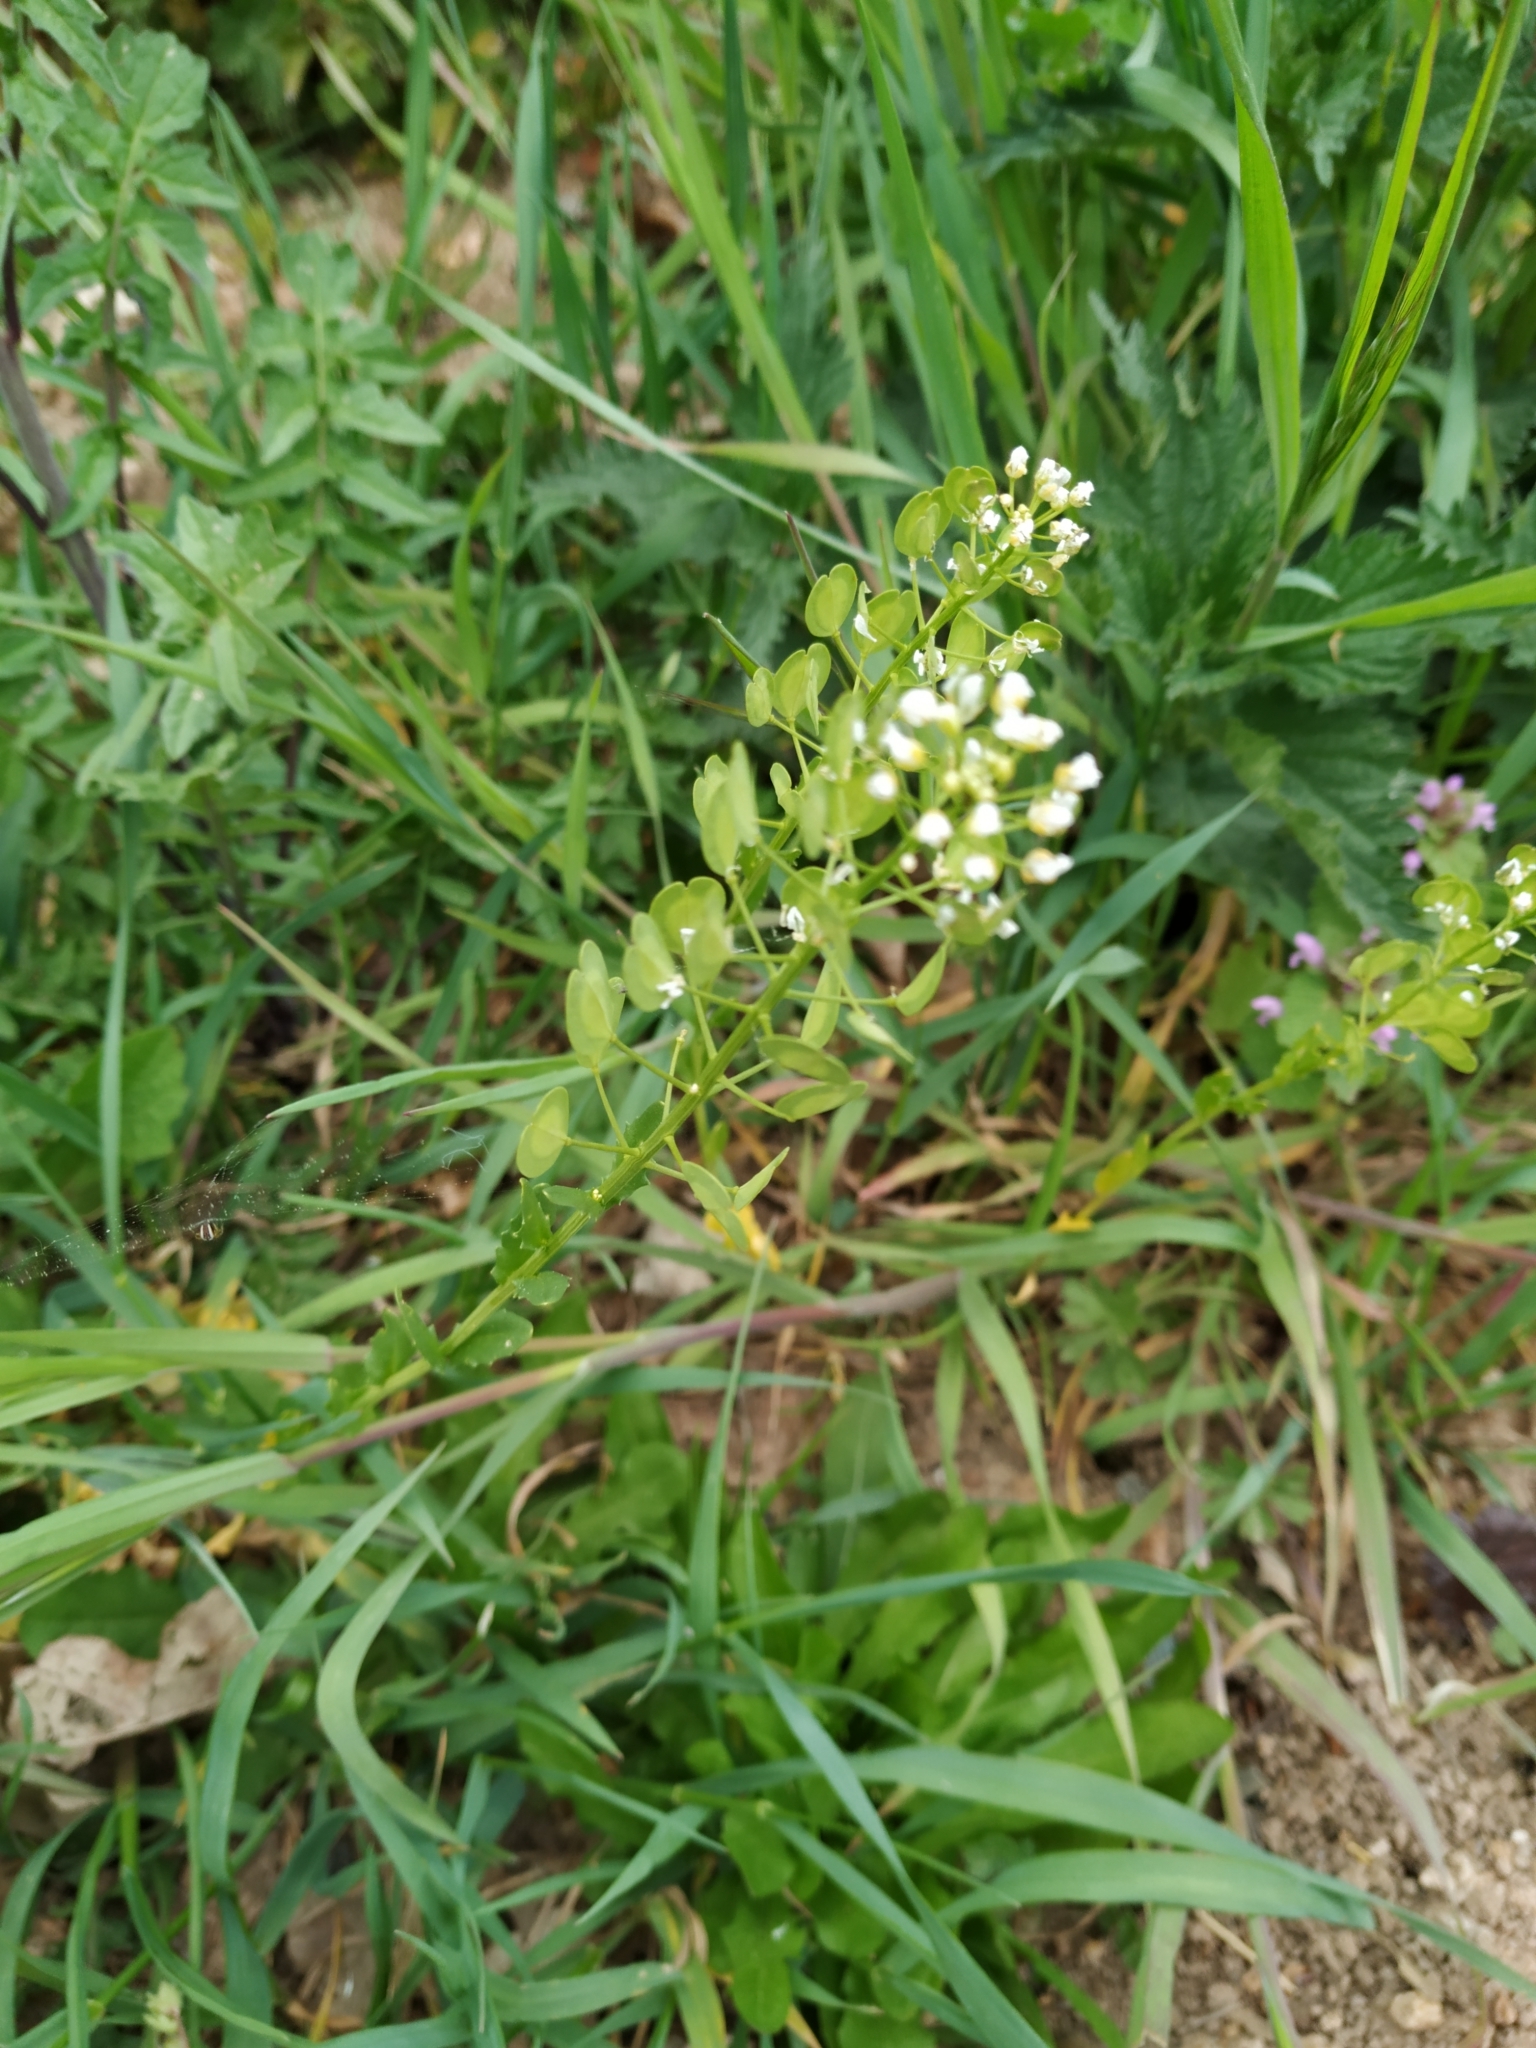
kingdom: Plantae
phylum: Tracheophyta
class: Magnoliopsida
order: Brassicales
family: Brassicaceae
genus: Thlaspi
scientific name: Thlaspi arvense
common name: Field pennycress
